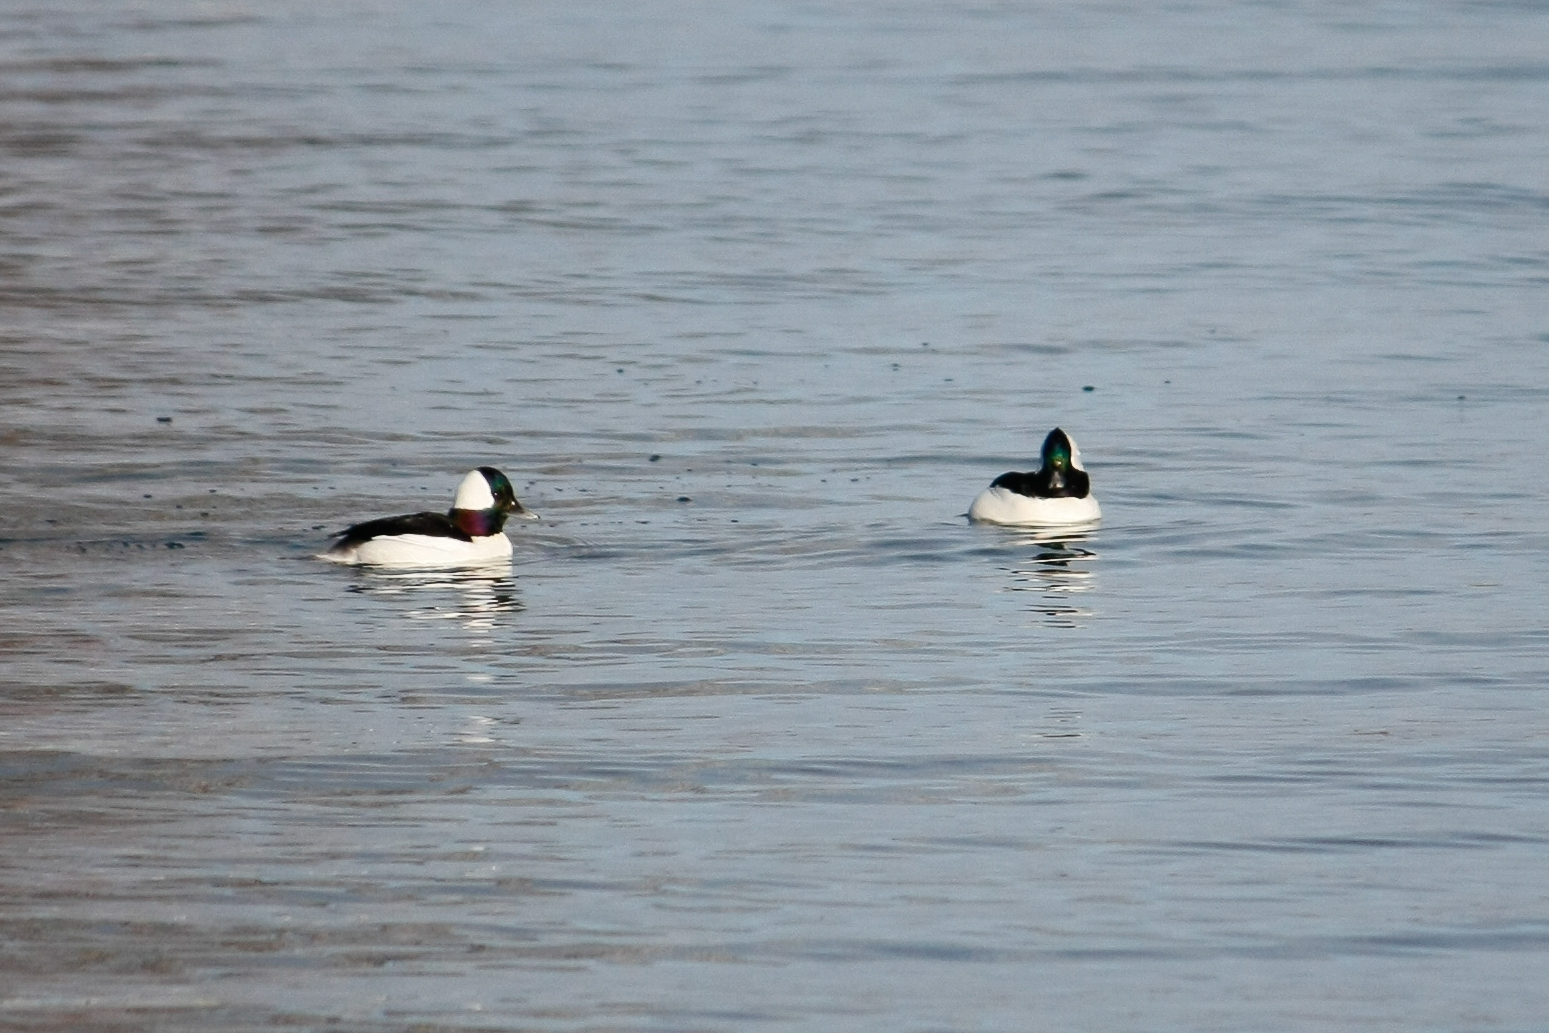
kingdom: Animalia
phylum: Chordata
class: Aves
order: Anseriformes
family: Anatidae
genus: Bucephala
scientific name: Bucephala albeola
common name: Bufflehead
